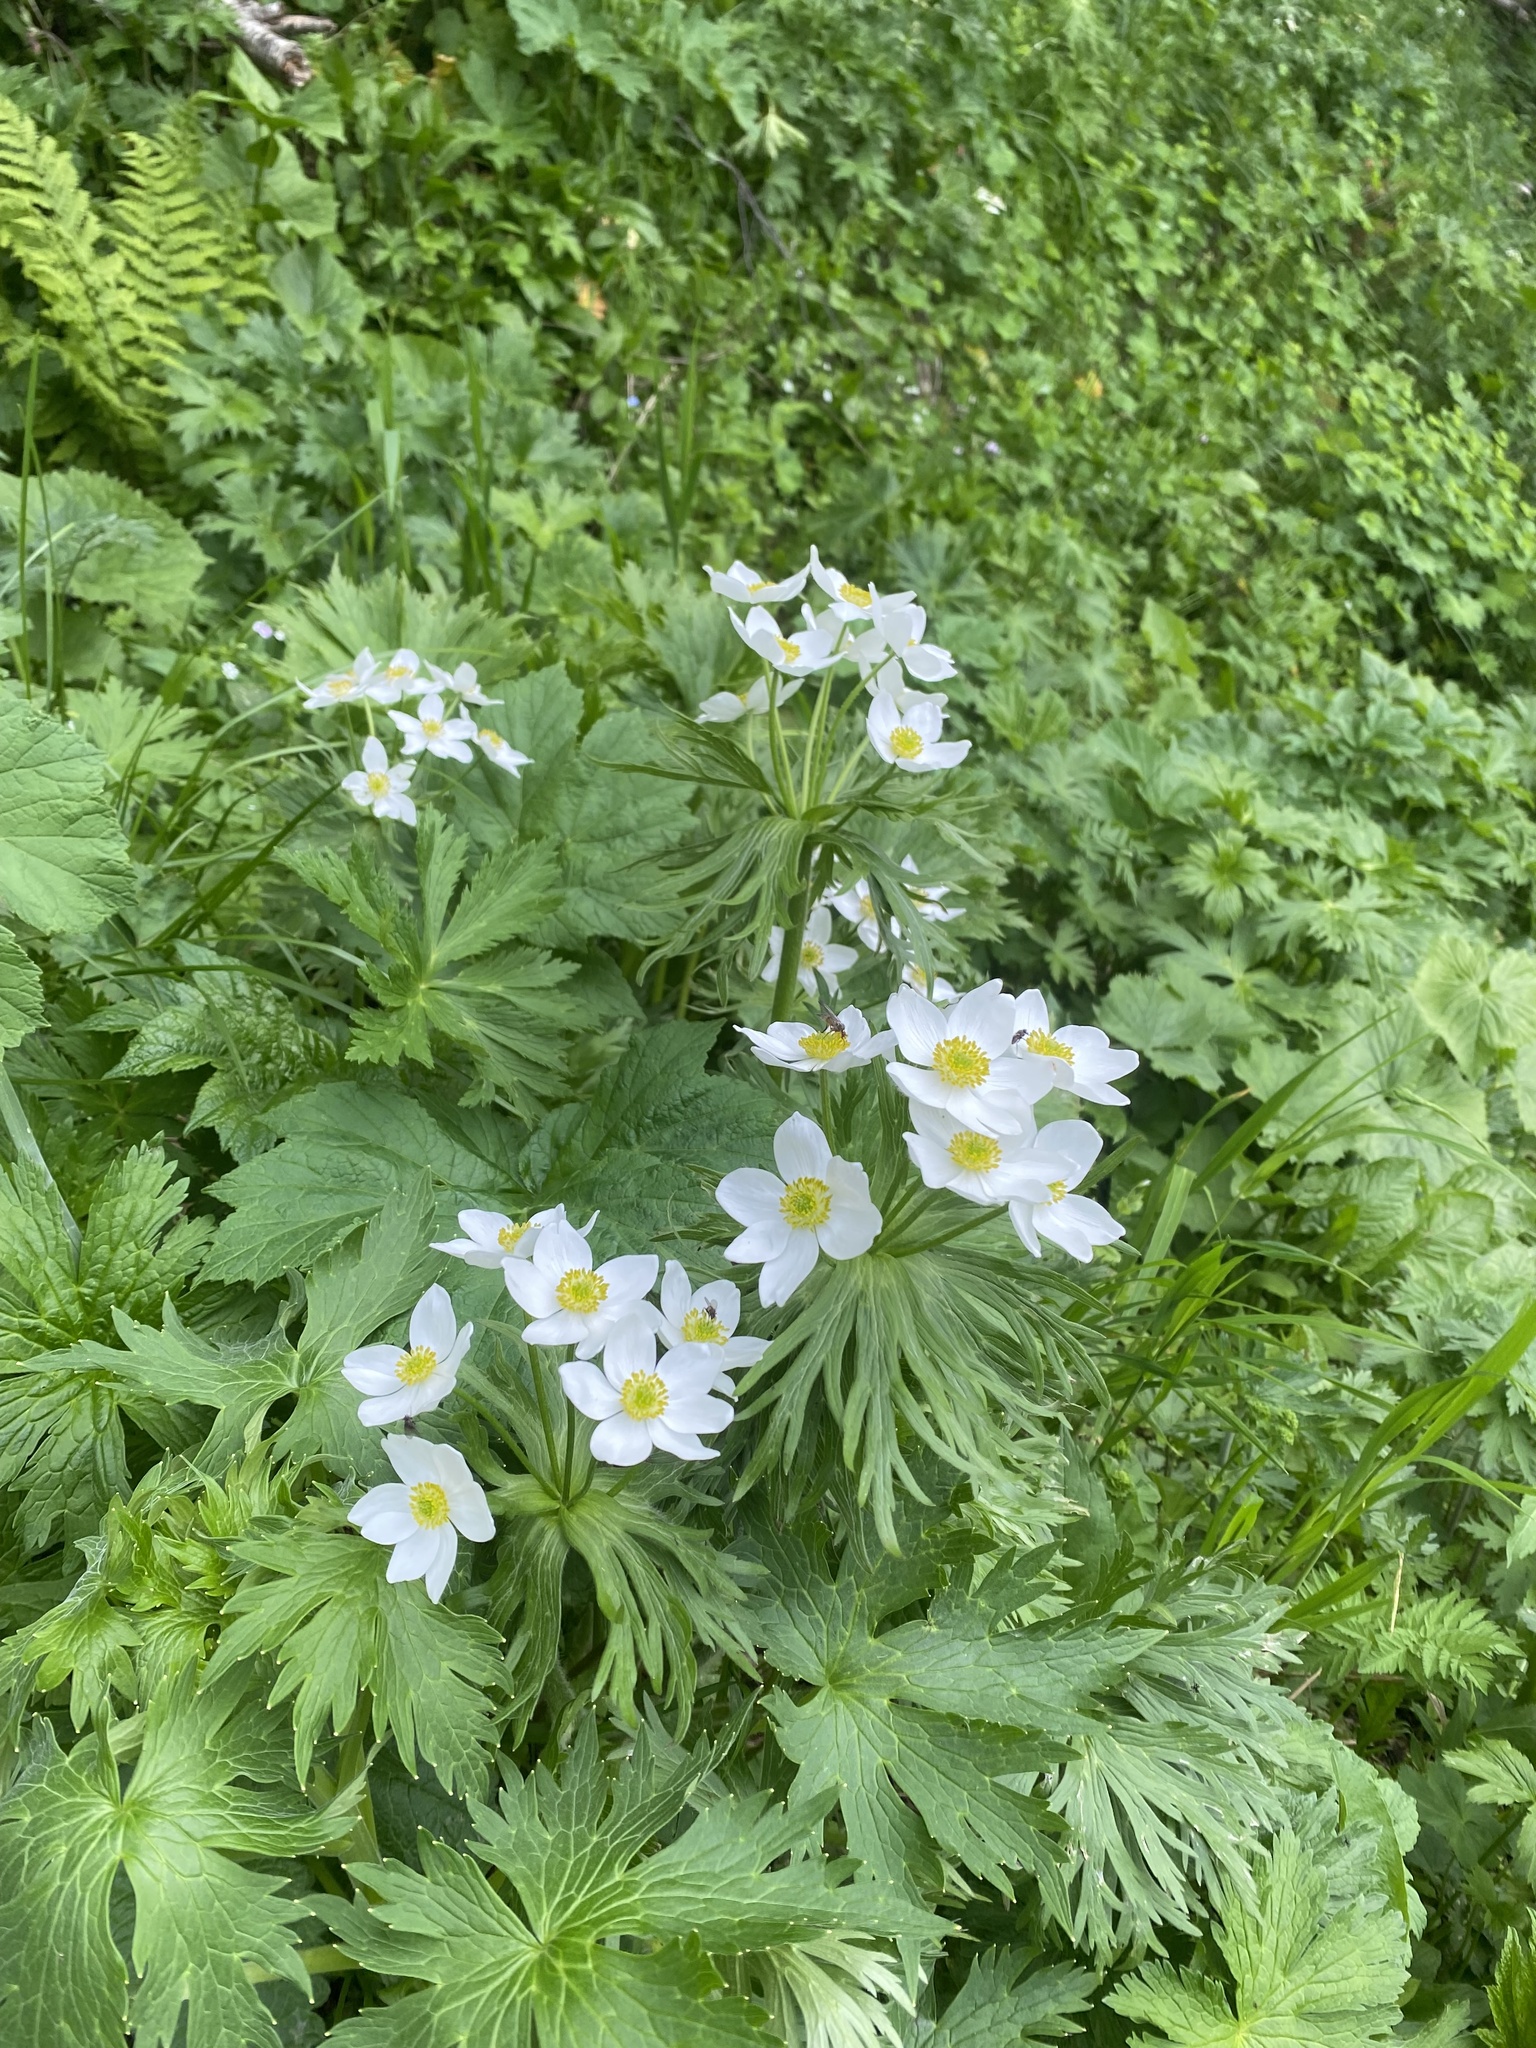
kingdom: Plantae
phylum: Tracheophyta
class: Magnoliopsida
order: Ranunculales
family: Ranunculaceae
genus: Anemonastrum
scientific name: Anemonastrum narcissiflorum
